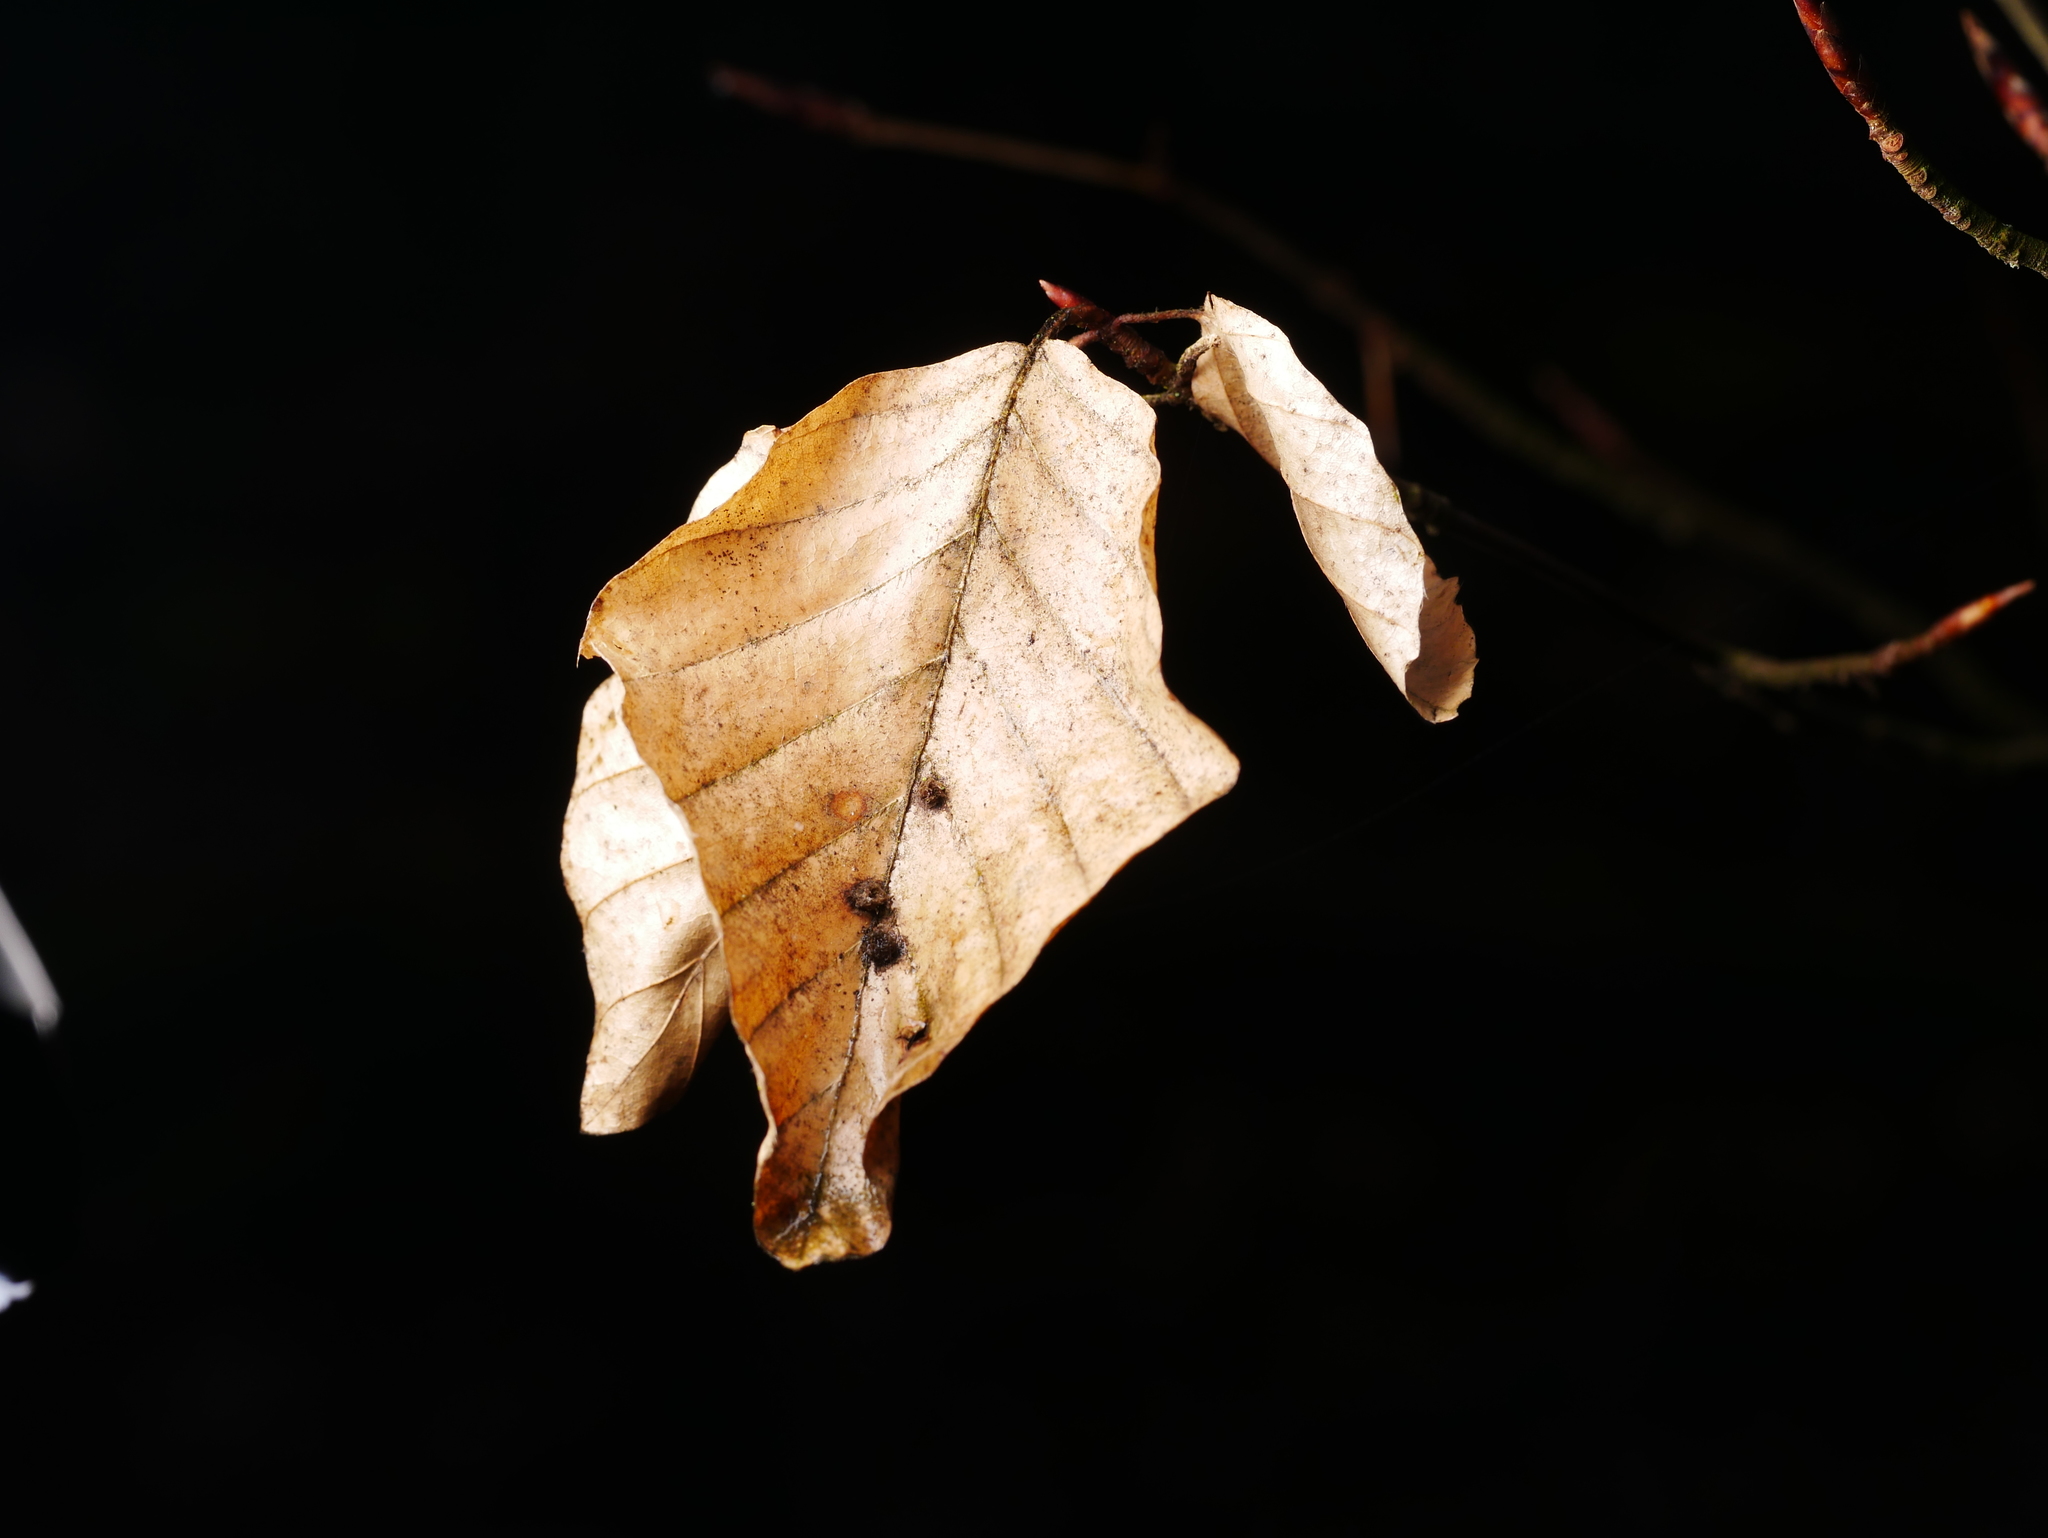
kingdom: Plantae
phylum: Tracheophyta
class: Magnoliopsida
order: Fagales
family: Fagaceae
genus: Fagus
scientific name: Fagus sylvatica
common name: Beech
